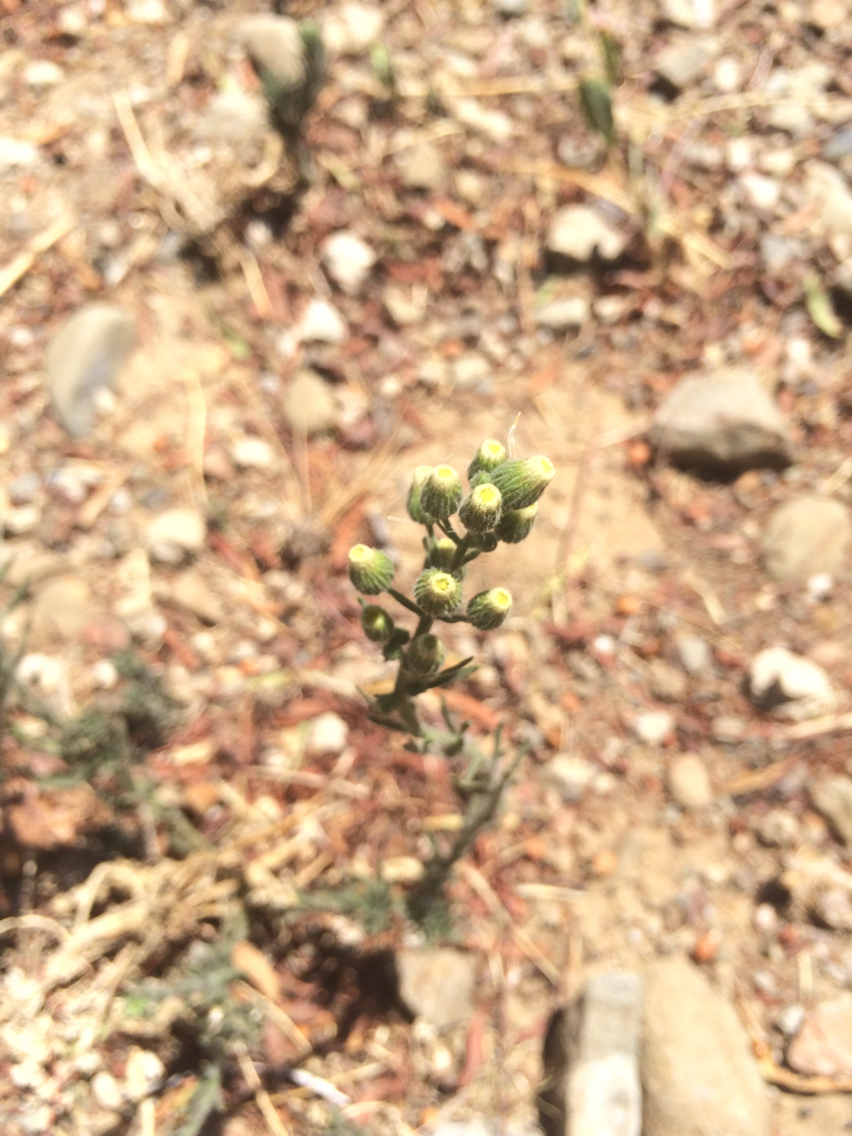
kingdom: Plantae
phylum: Tracheophyta
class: Magnoliopsida
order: Asterales
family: Asteraceae
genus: Erigeron
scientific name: Erigeron bonariensis
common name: Argentine fleabane
